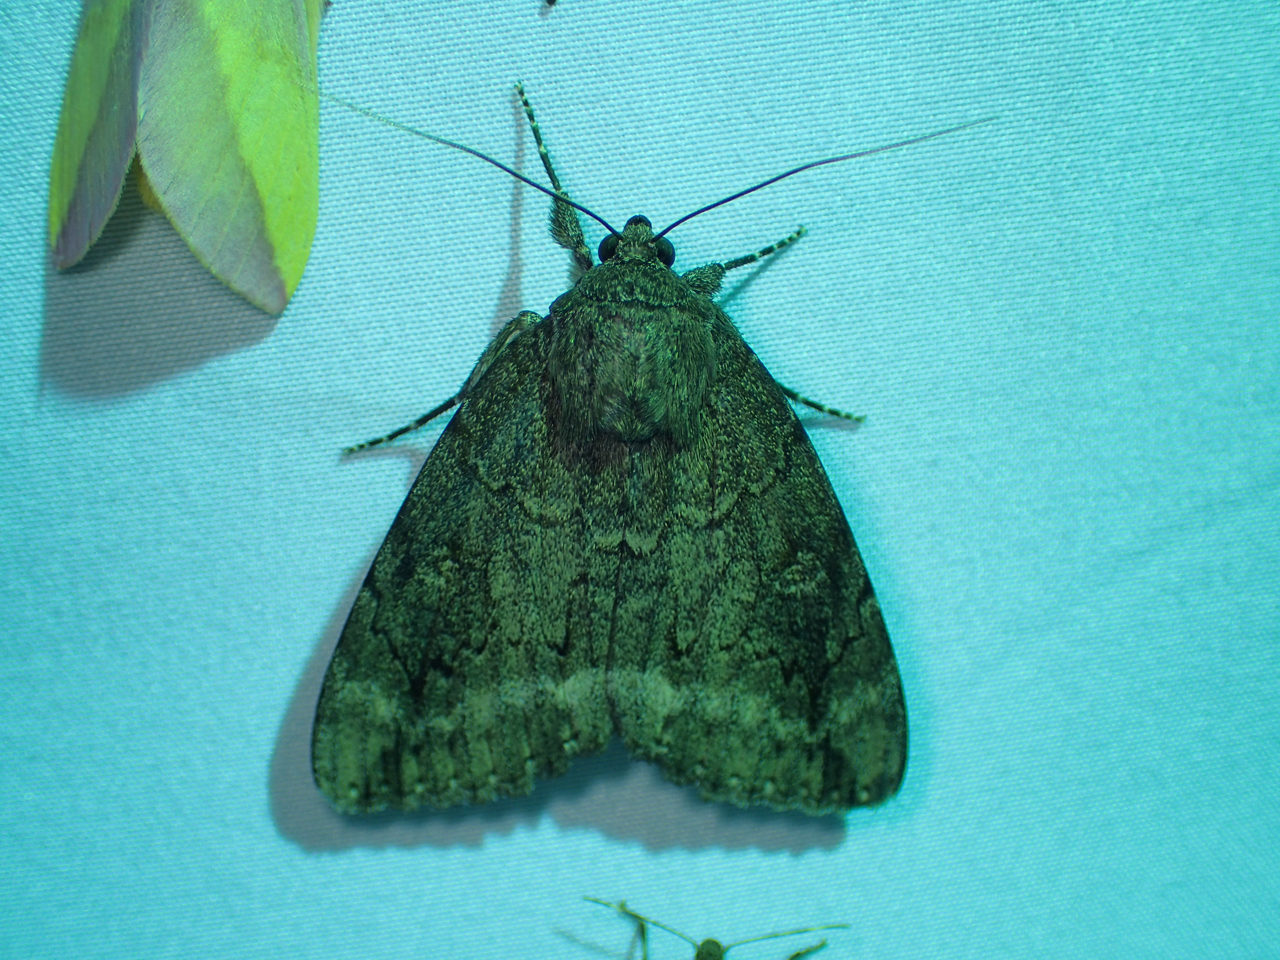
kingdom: Animalia
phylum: Arthropoda
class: Insecta
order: Lepidoptera
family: Erebidae
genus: Catocala
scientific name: Catocala residua
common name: Residua underwing
